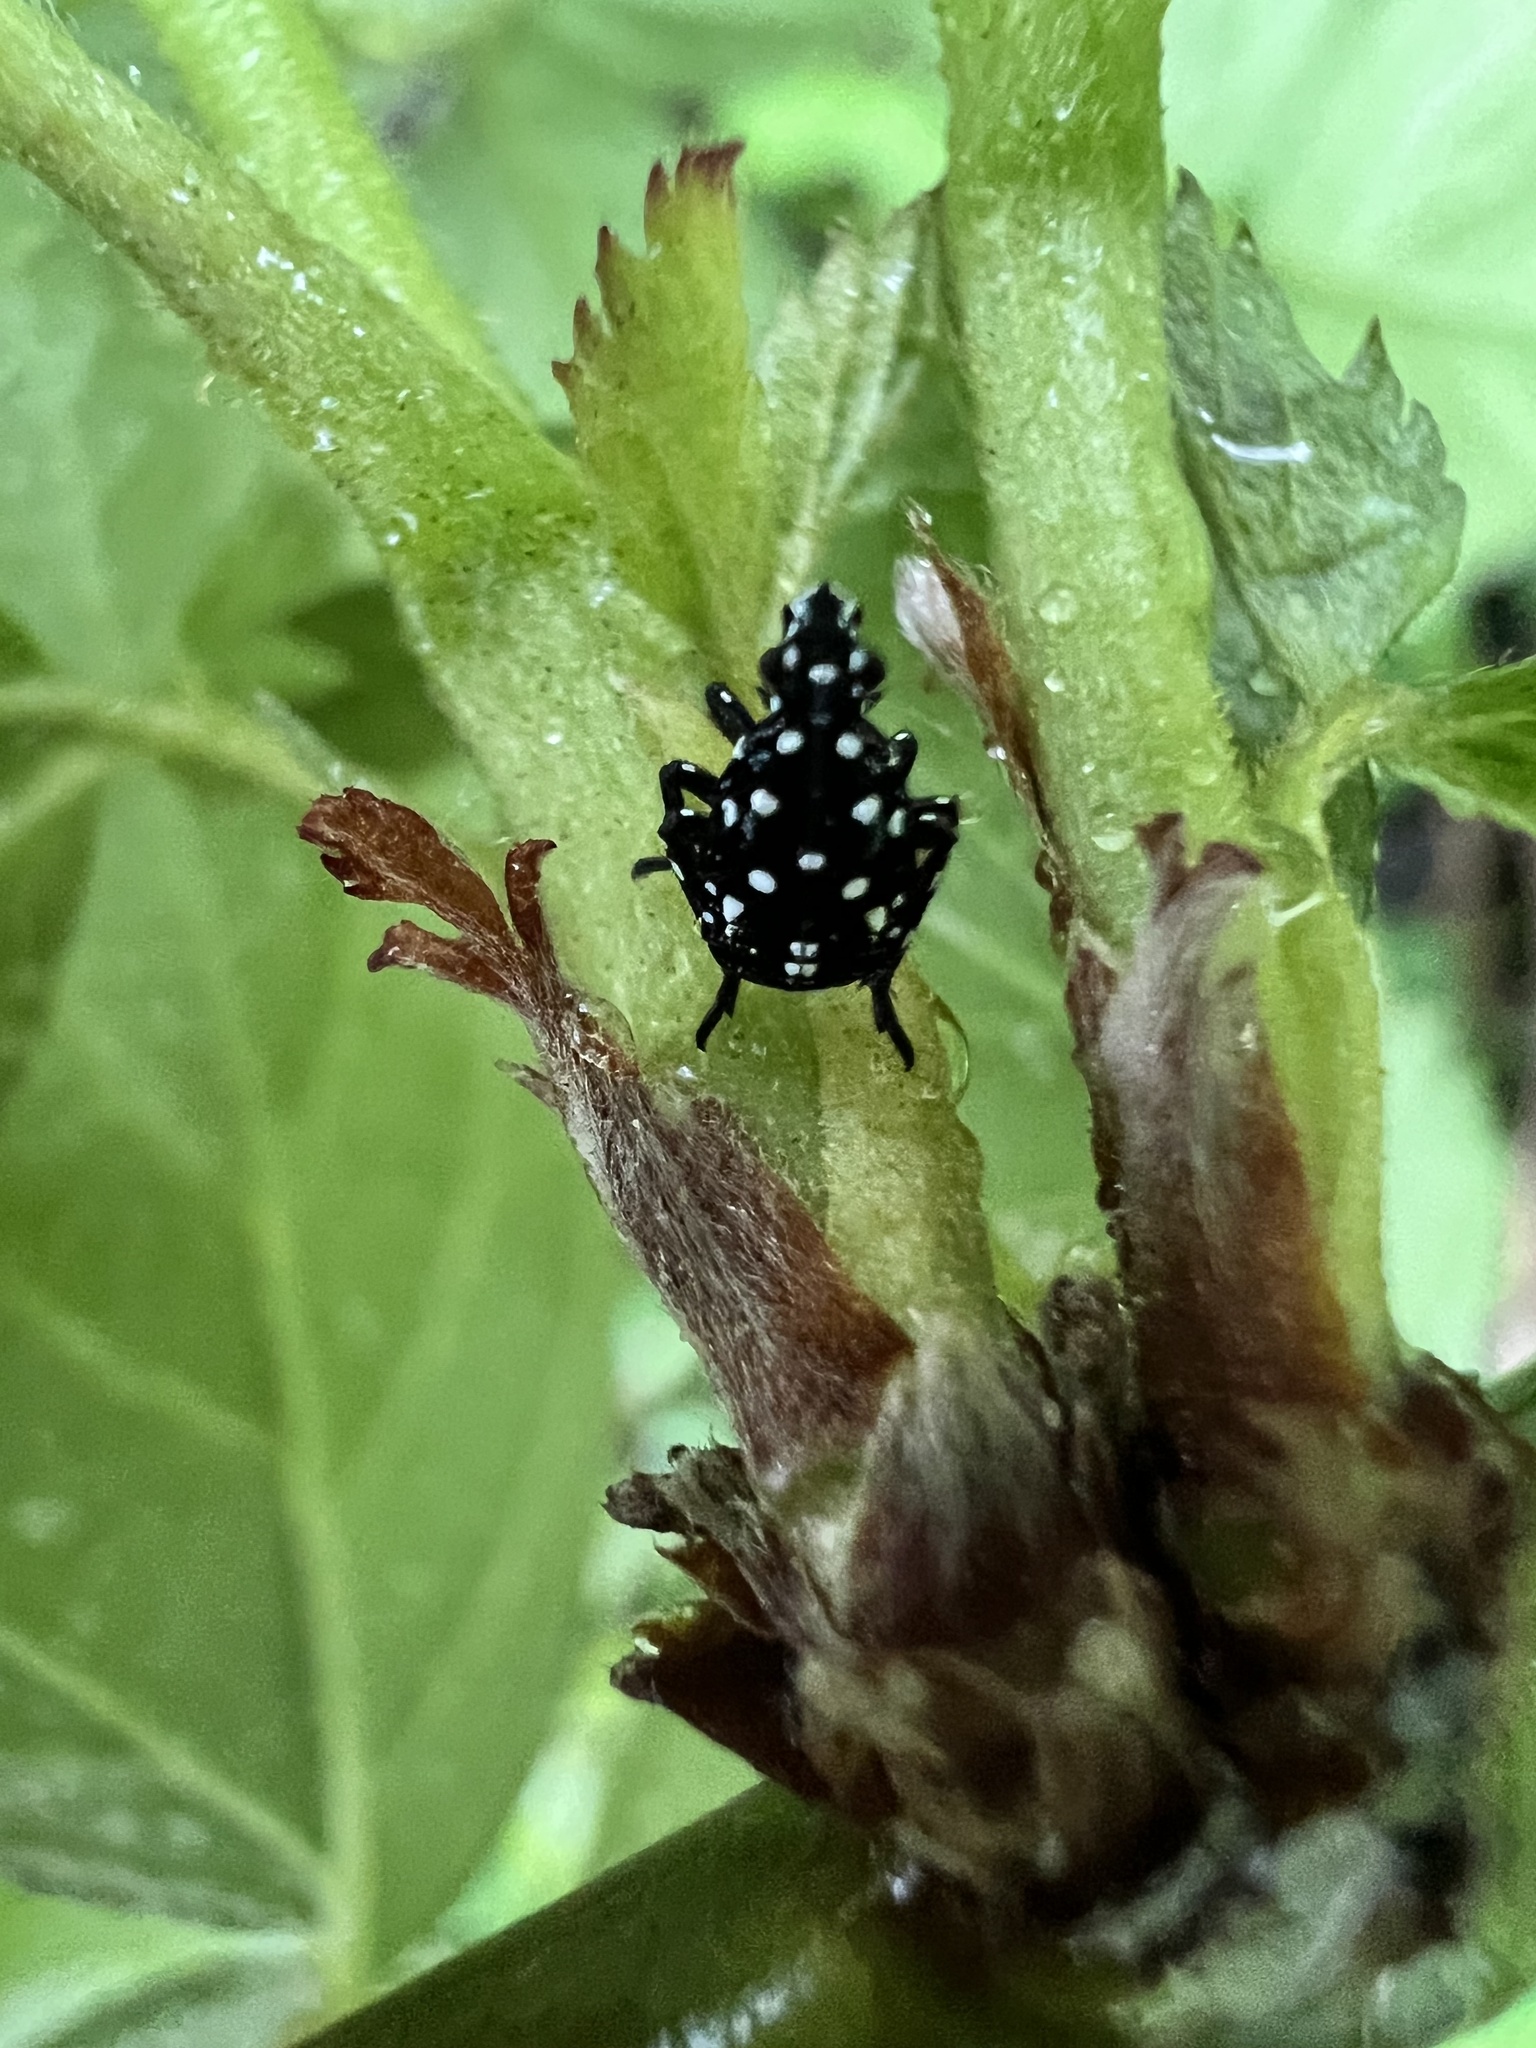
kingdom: Animalia
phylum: Arthropoda
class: Insecta
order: Hemiptera
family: Fulgoridae
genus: Lycorma
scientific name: Lycorma delicatula
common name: Spotted lanternfly
